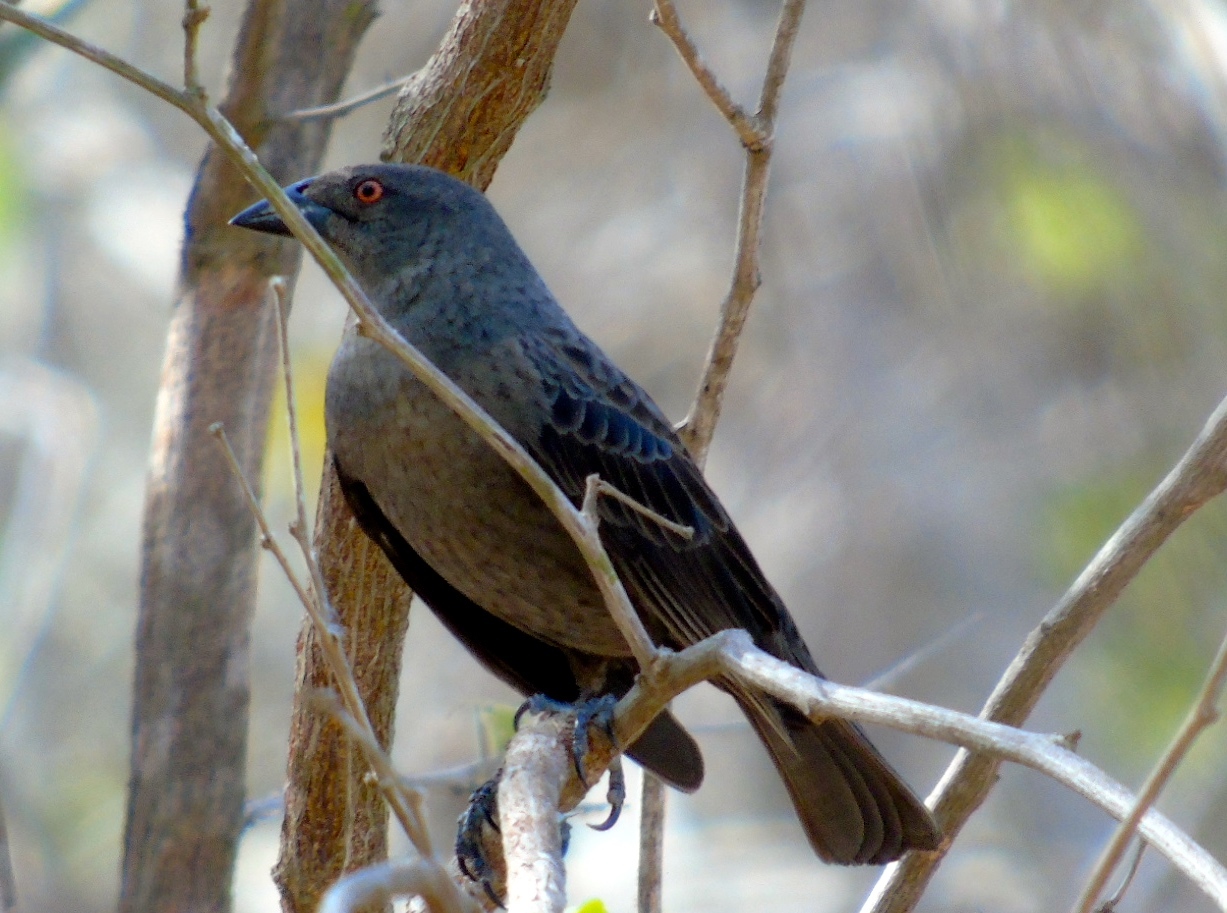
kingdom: Animalia
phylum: Chordata
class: Aves
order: Passeriformes
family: Icteridae
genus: Molothrus
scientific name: Molothrus aeneus
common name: Bronzed cowbird
